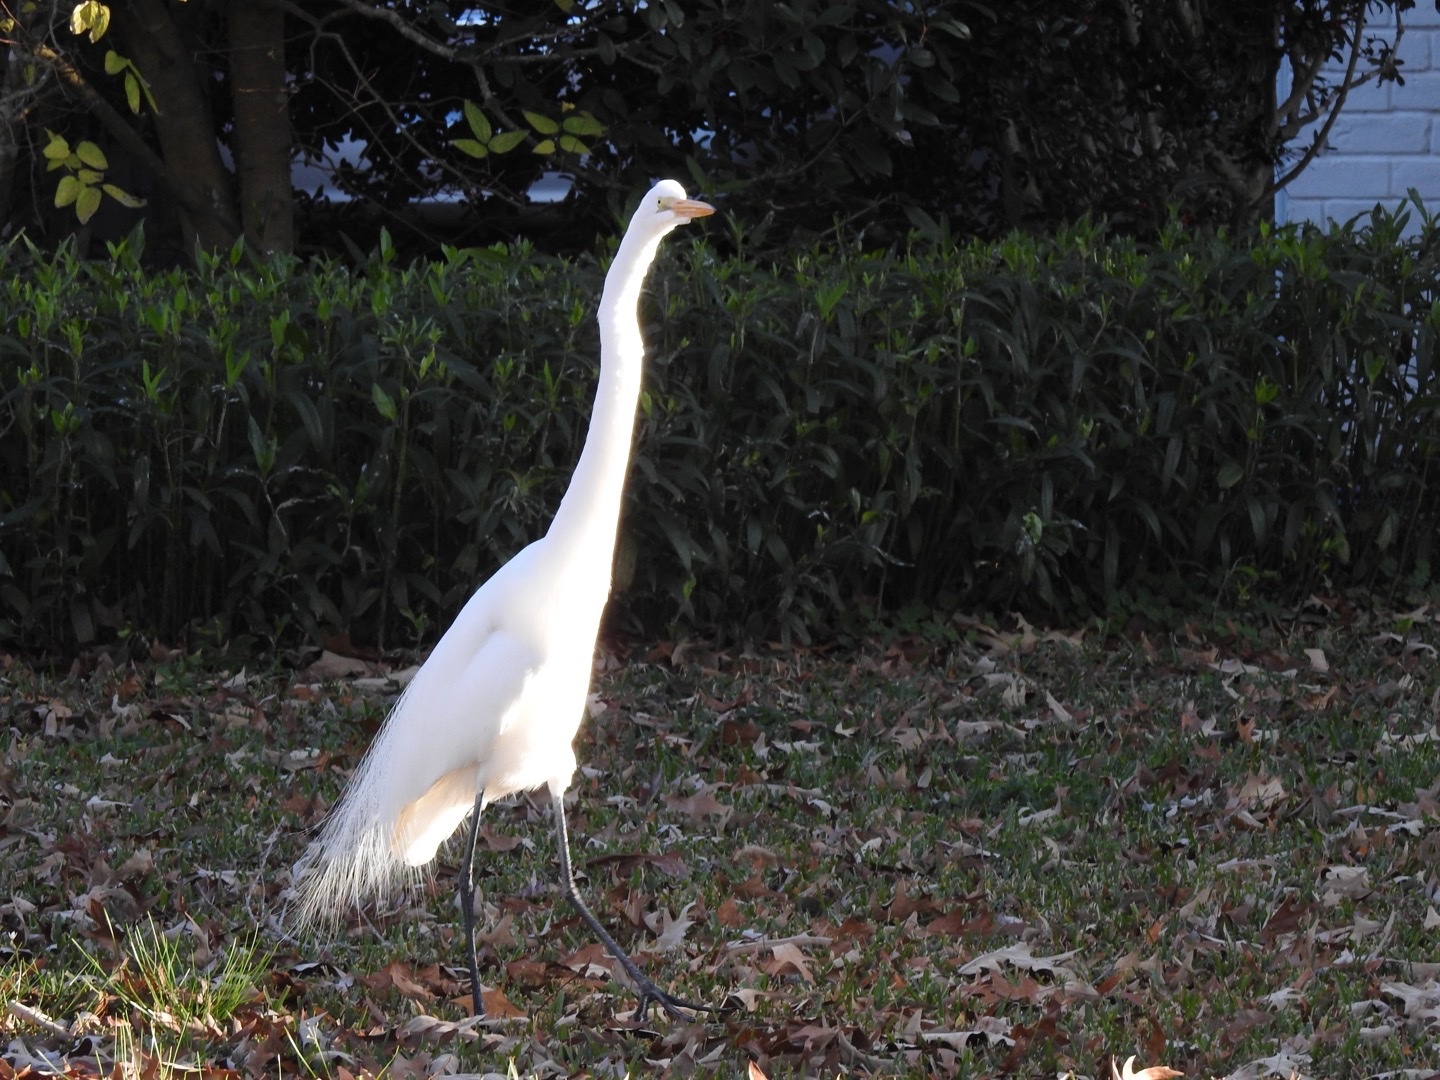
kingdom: Animalia
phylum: Chordata
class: Aves
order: Pelecaniformes
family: Ardeidae
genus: Ardea
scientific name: Ardea alba
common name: Great egret
